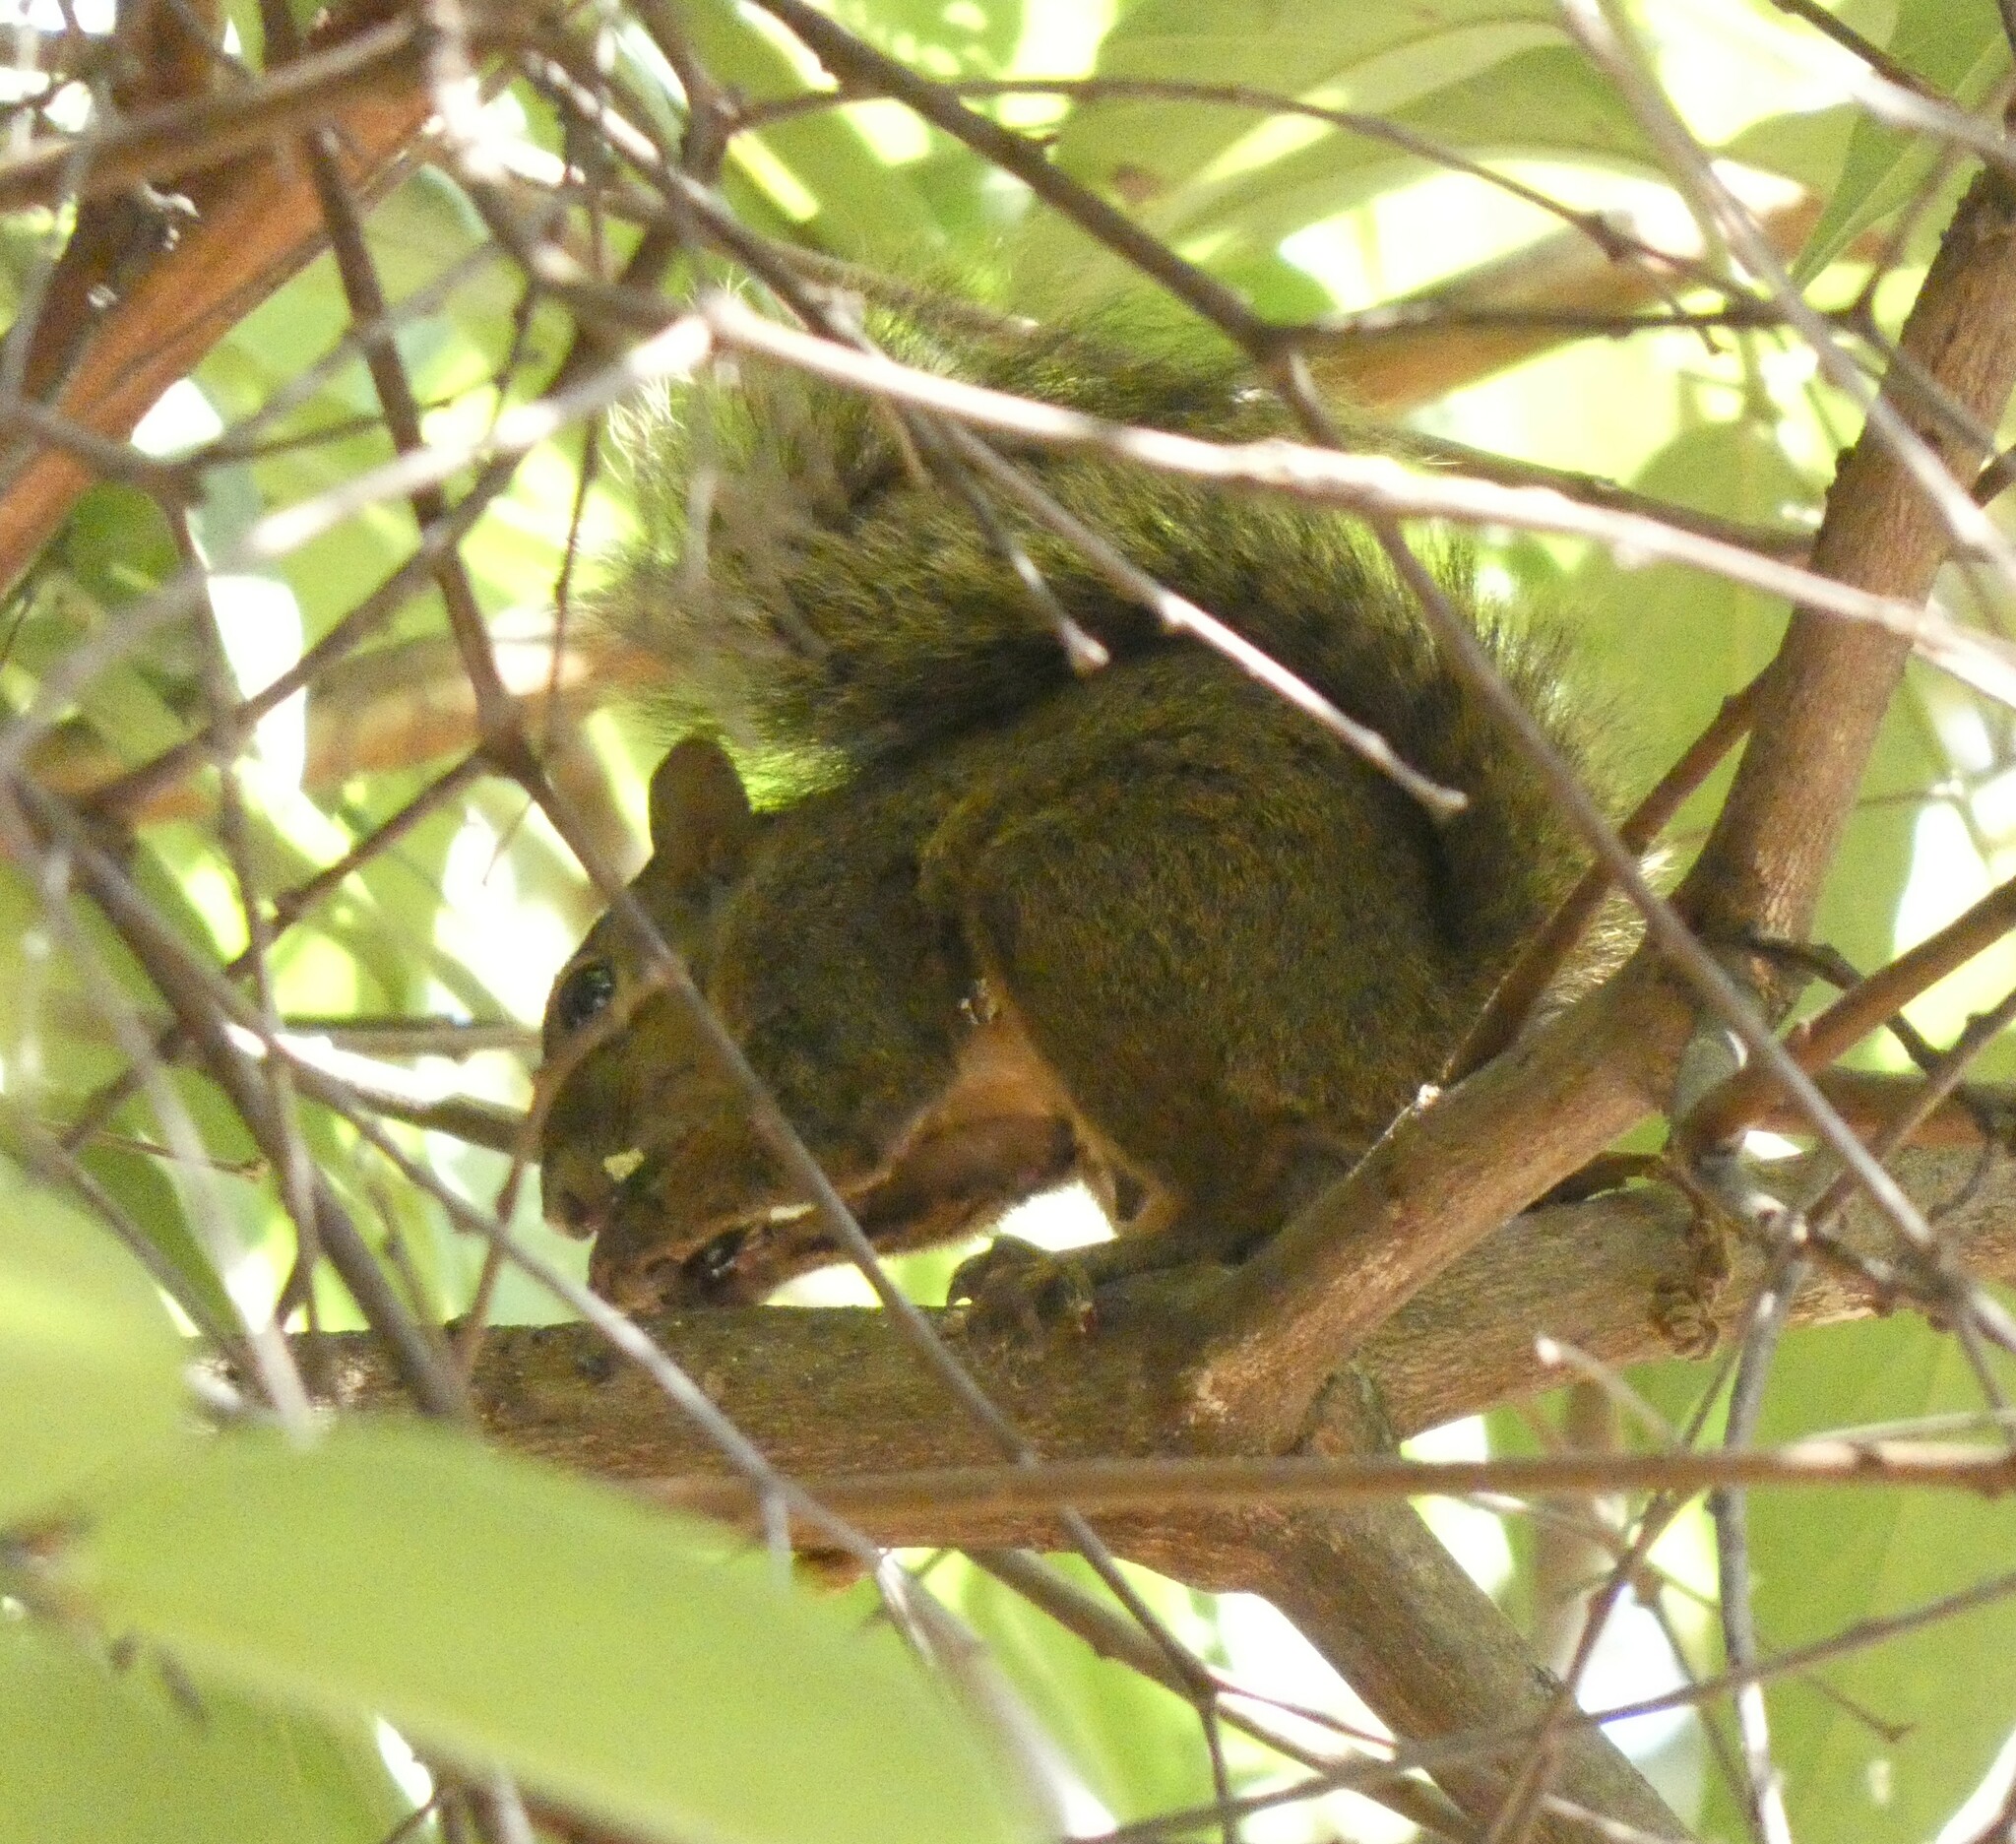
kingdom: Animalia
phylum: Chordata
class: Mammalia
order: Rodentia
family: Sciuridae
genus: Sciurus
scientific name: Sciurus aestuans
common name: Guianan squirrel
